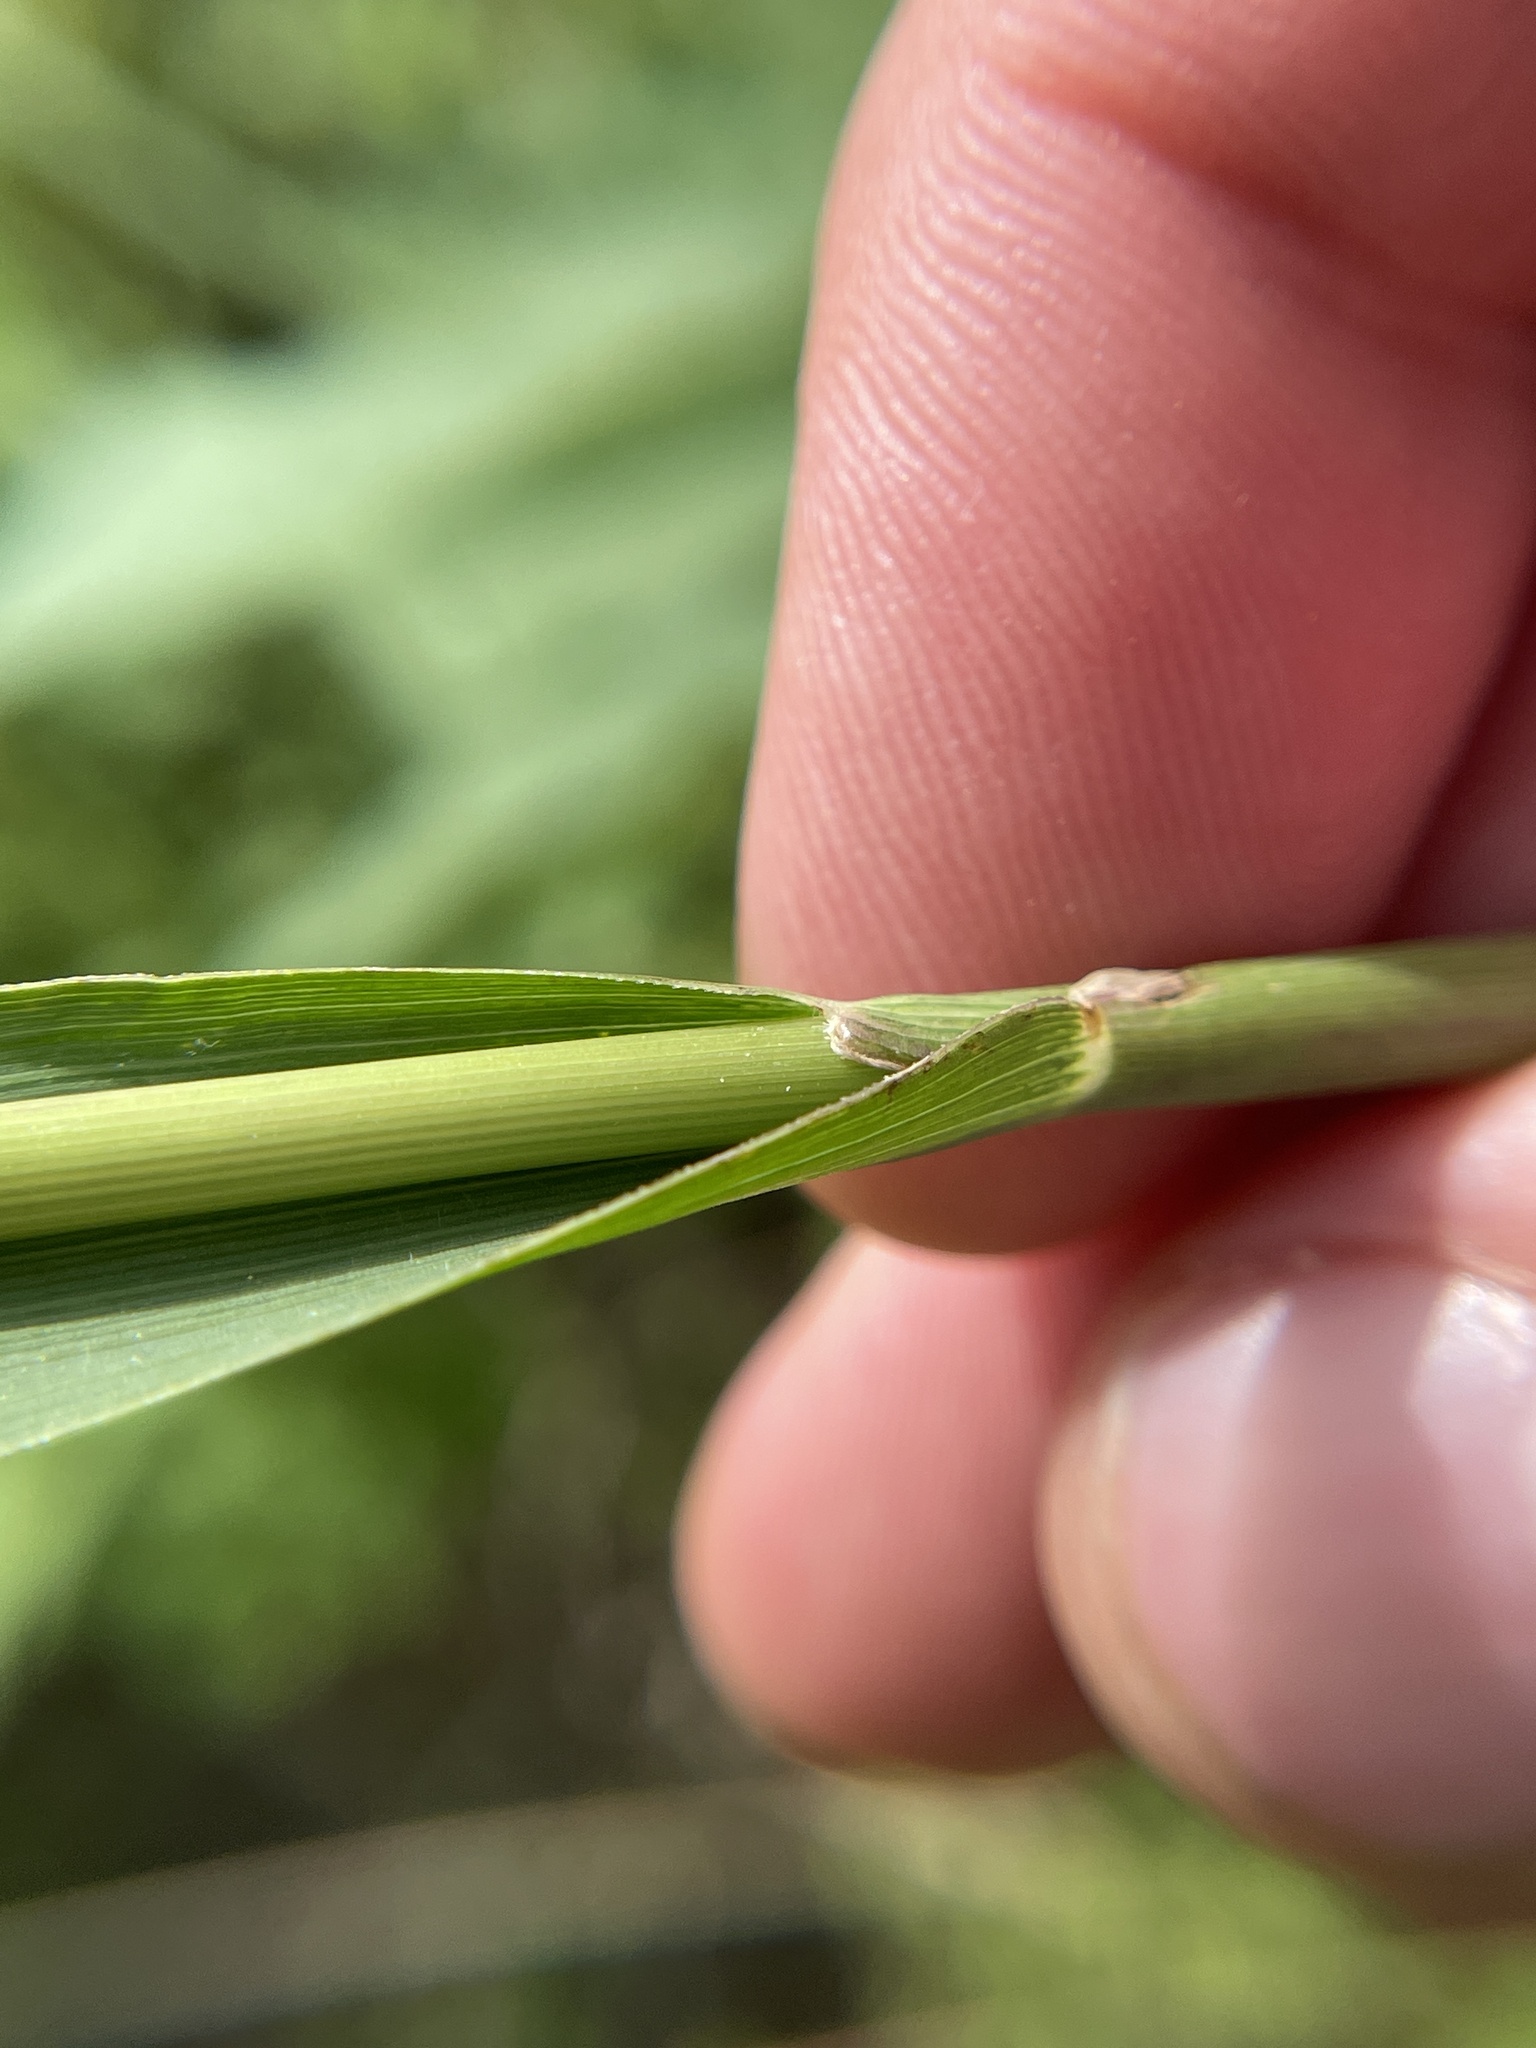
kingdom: Plantae
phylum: Tracheophyta
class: Liliopsida
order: Poales
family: Poaceae
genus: Tripsacum
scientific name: Tripsacum dactyloides
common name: Buffalo-grass
